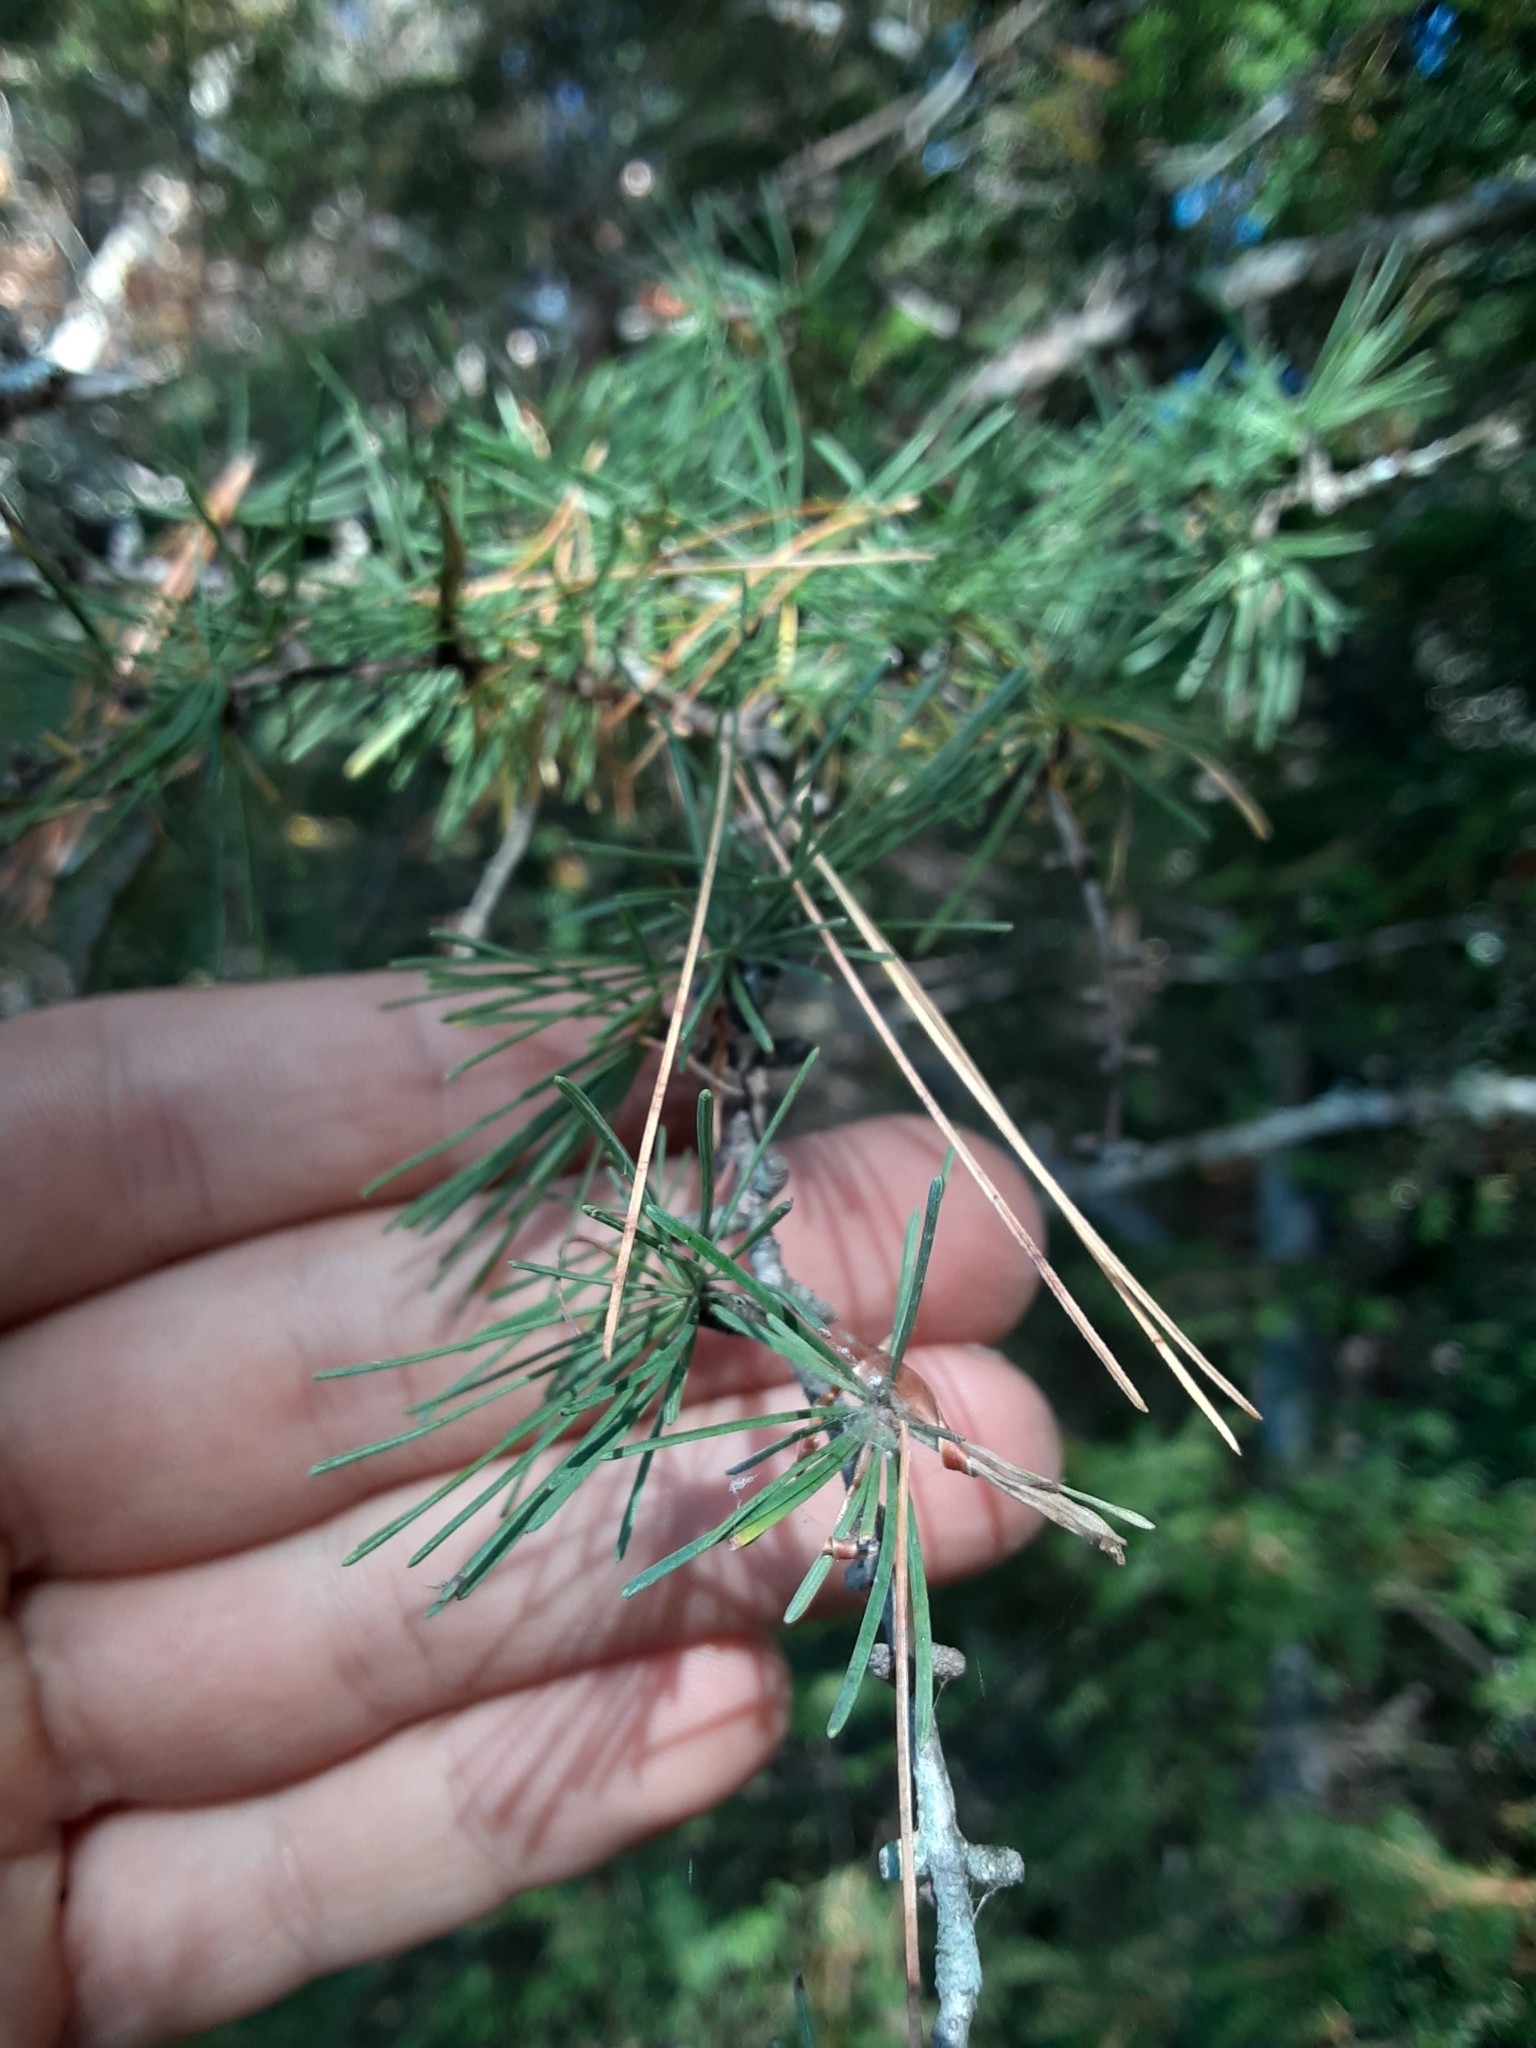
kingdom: Plantae
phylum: Tracheophyta
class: Pinopsida
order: Pinales
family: Pinaceae
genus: Larix
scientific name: Larix laricina
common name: American larch
